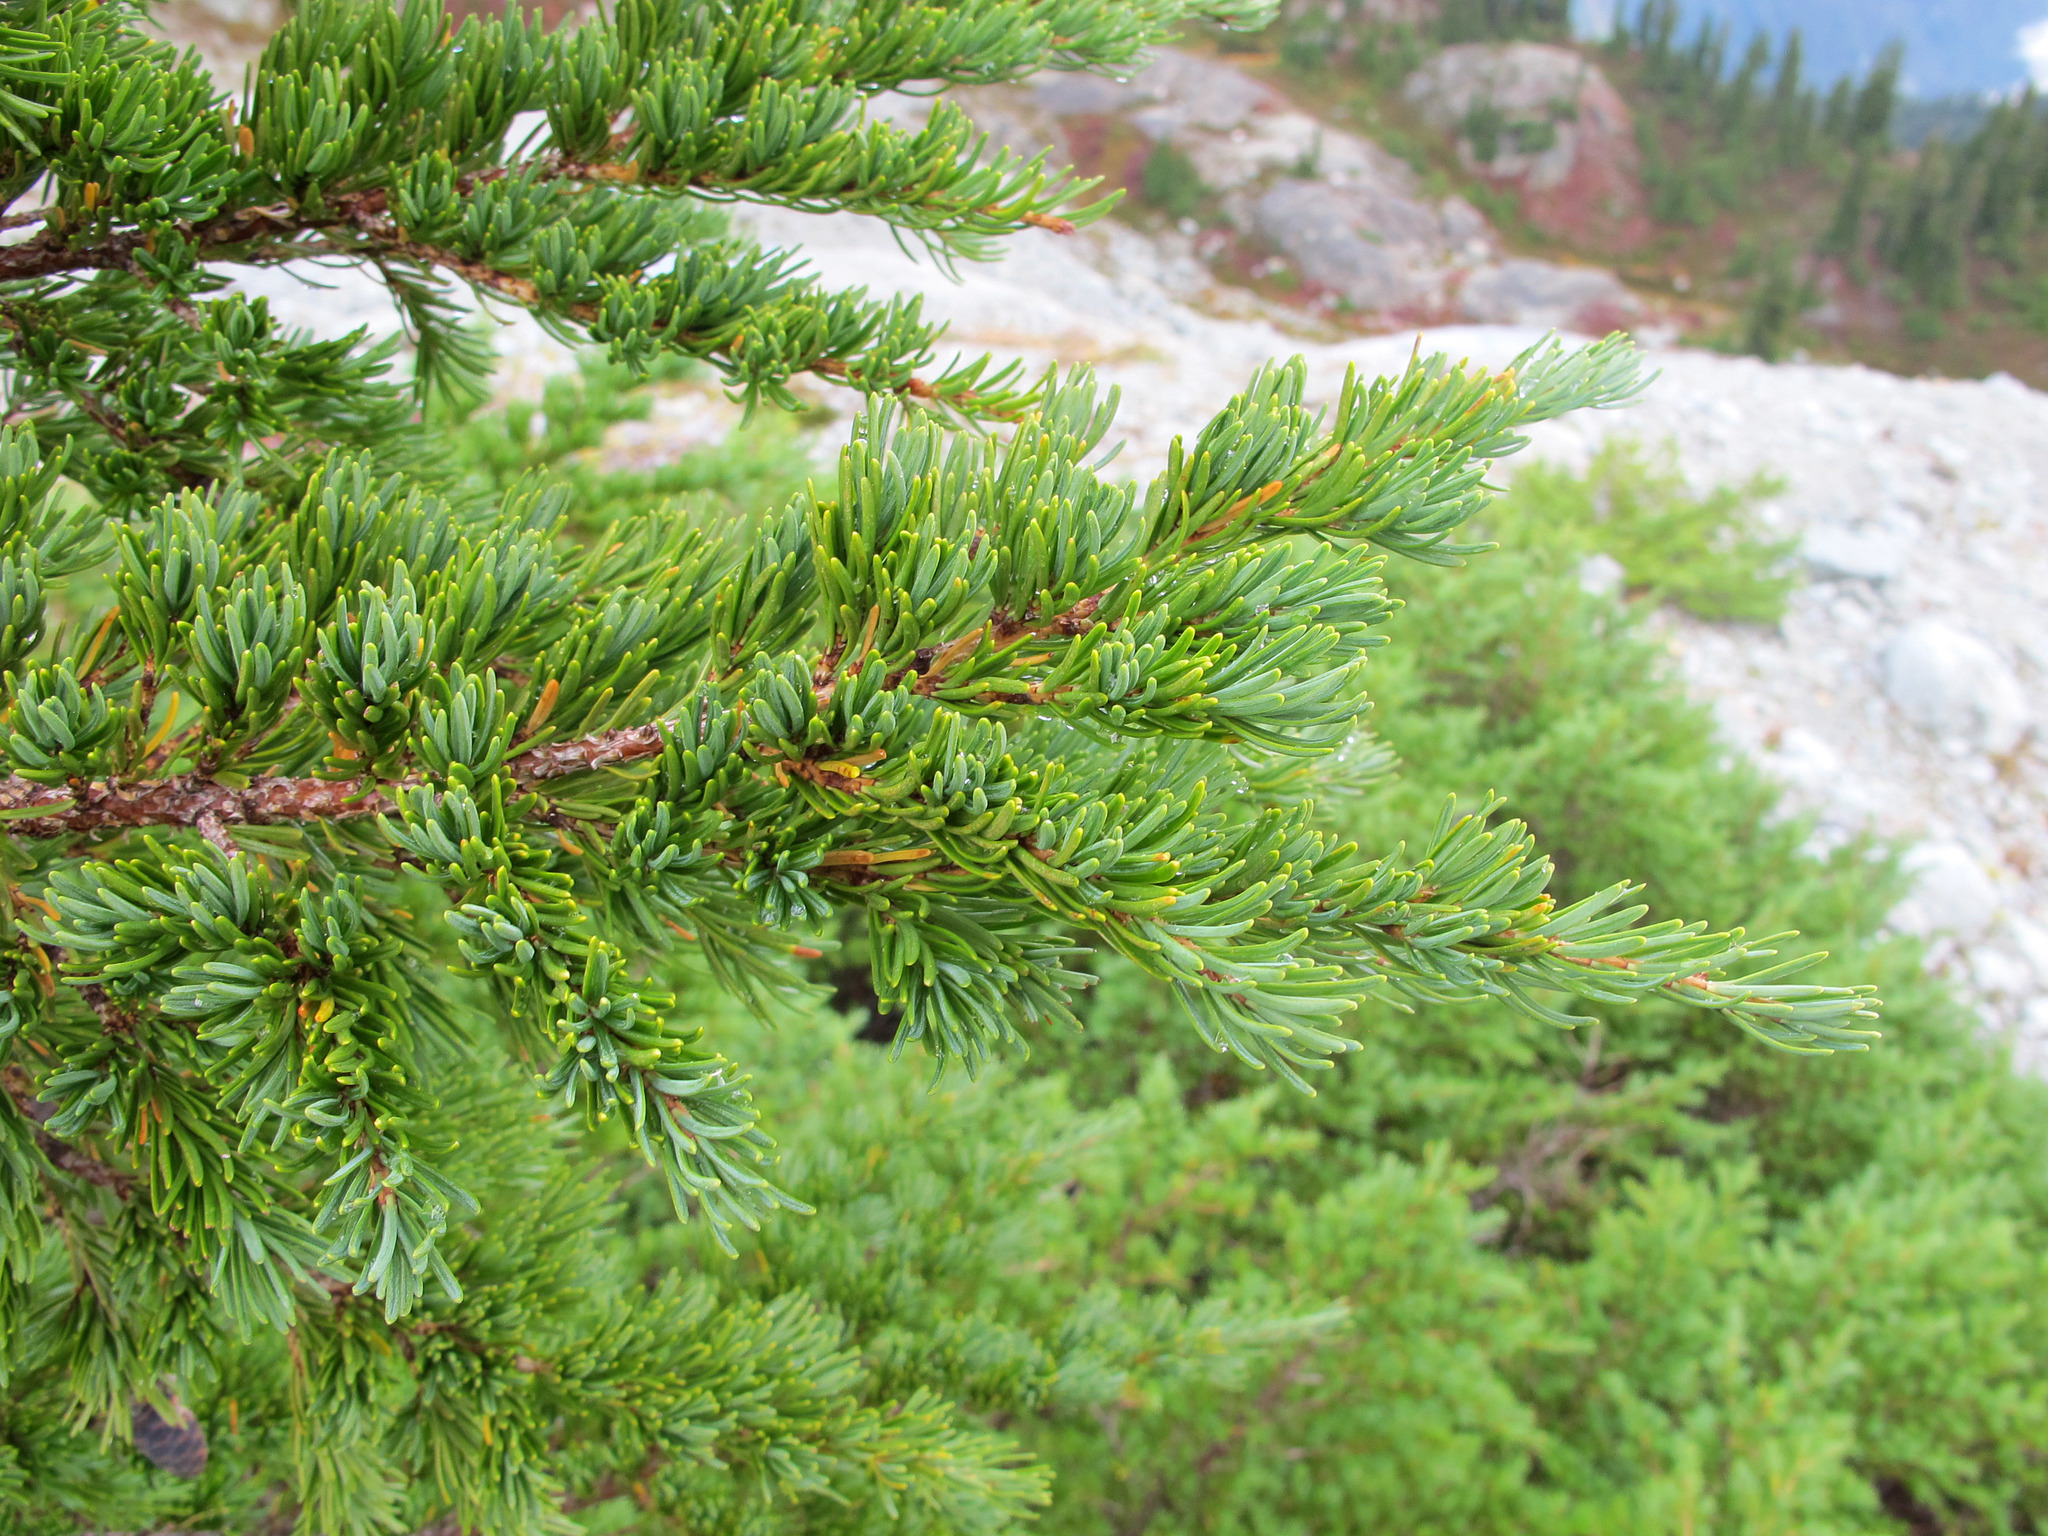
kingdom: Plantae
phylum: Tracheophyta
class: Pinopsida
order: Pinales
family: Pinaceae
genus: Tsuga
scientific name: Tsuga mertensiana
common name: Mountain hemlock
